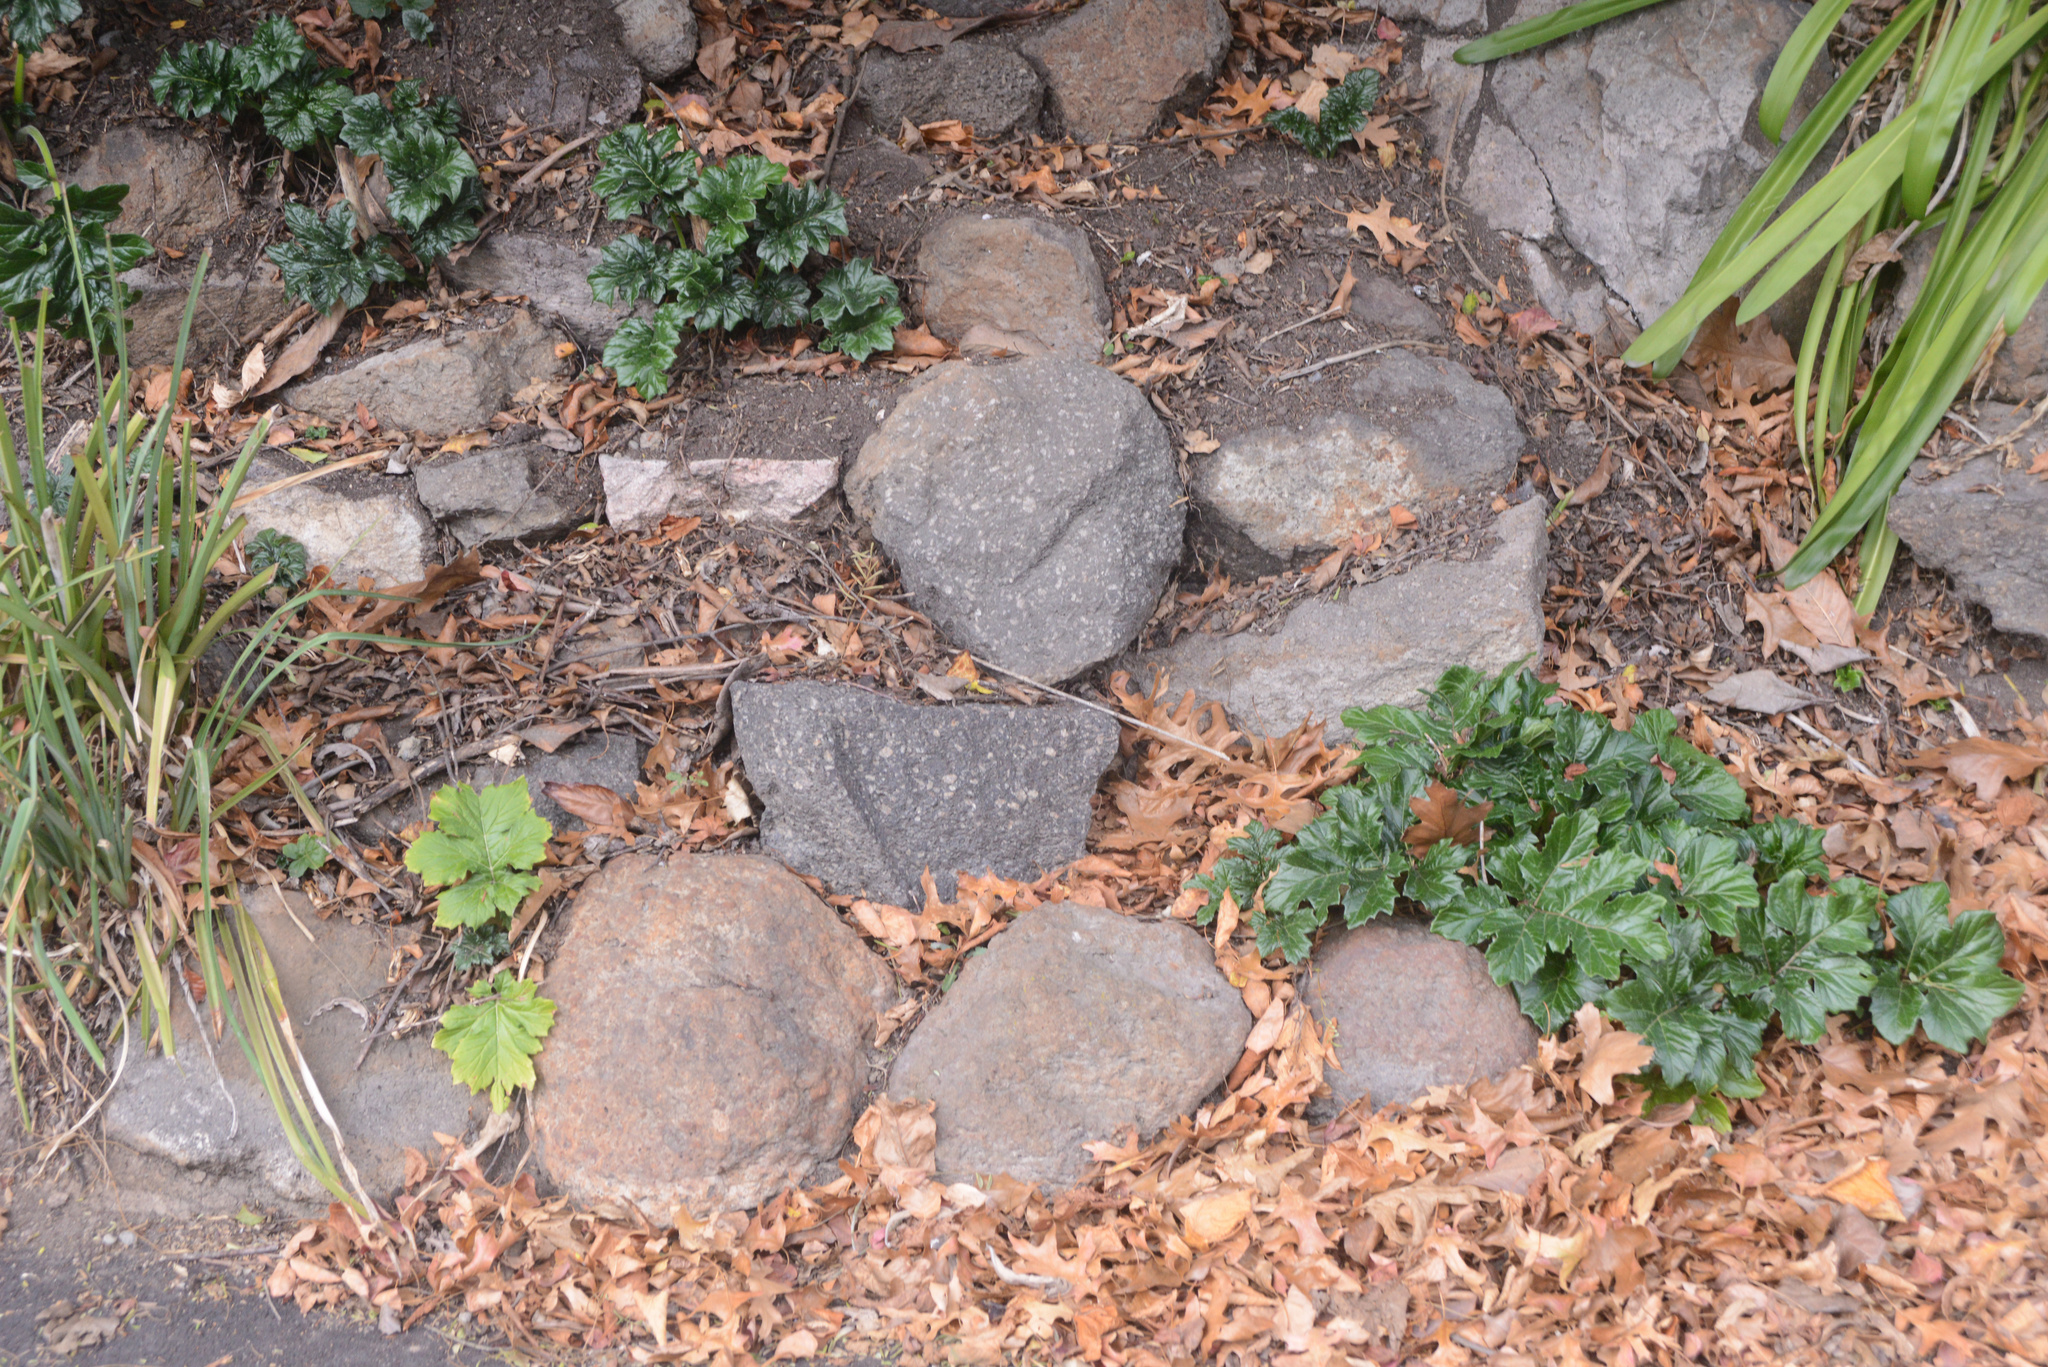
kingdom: Plantae
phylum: Tracheophyta
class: Magnoliopsida
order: Lamiales
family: Acanthaceae
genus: Acanthus
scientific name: Acanthus mollis
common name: Bear's-breech
